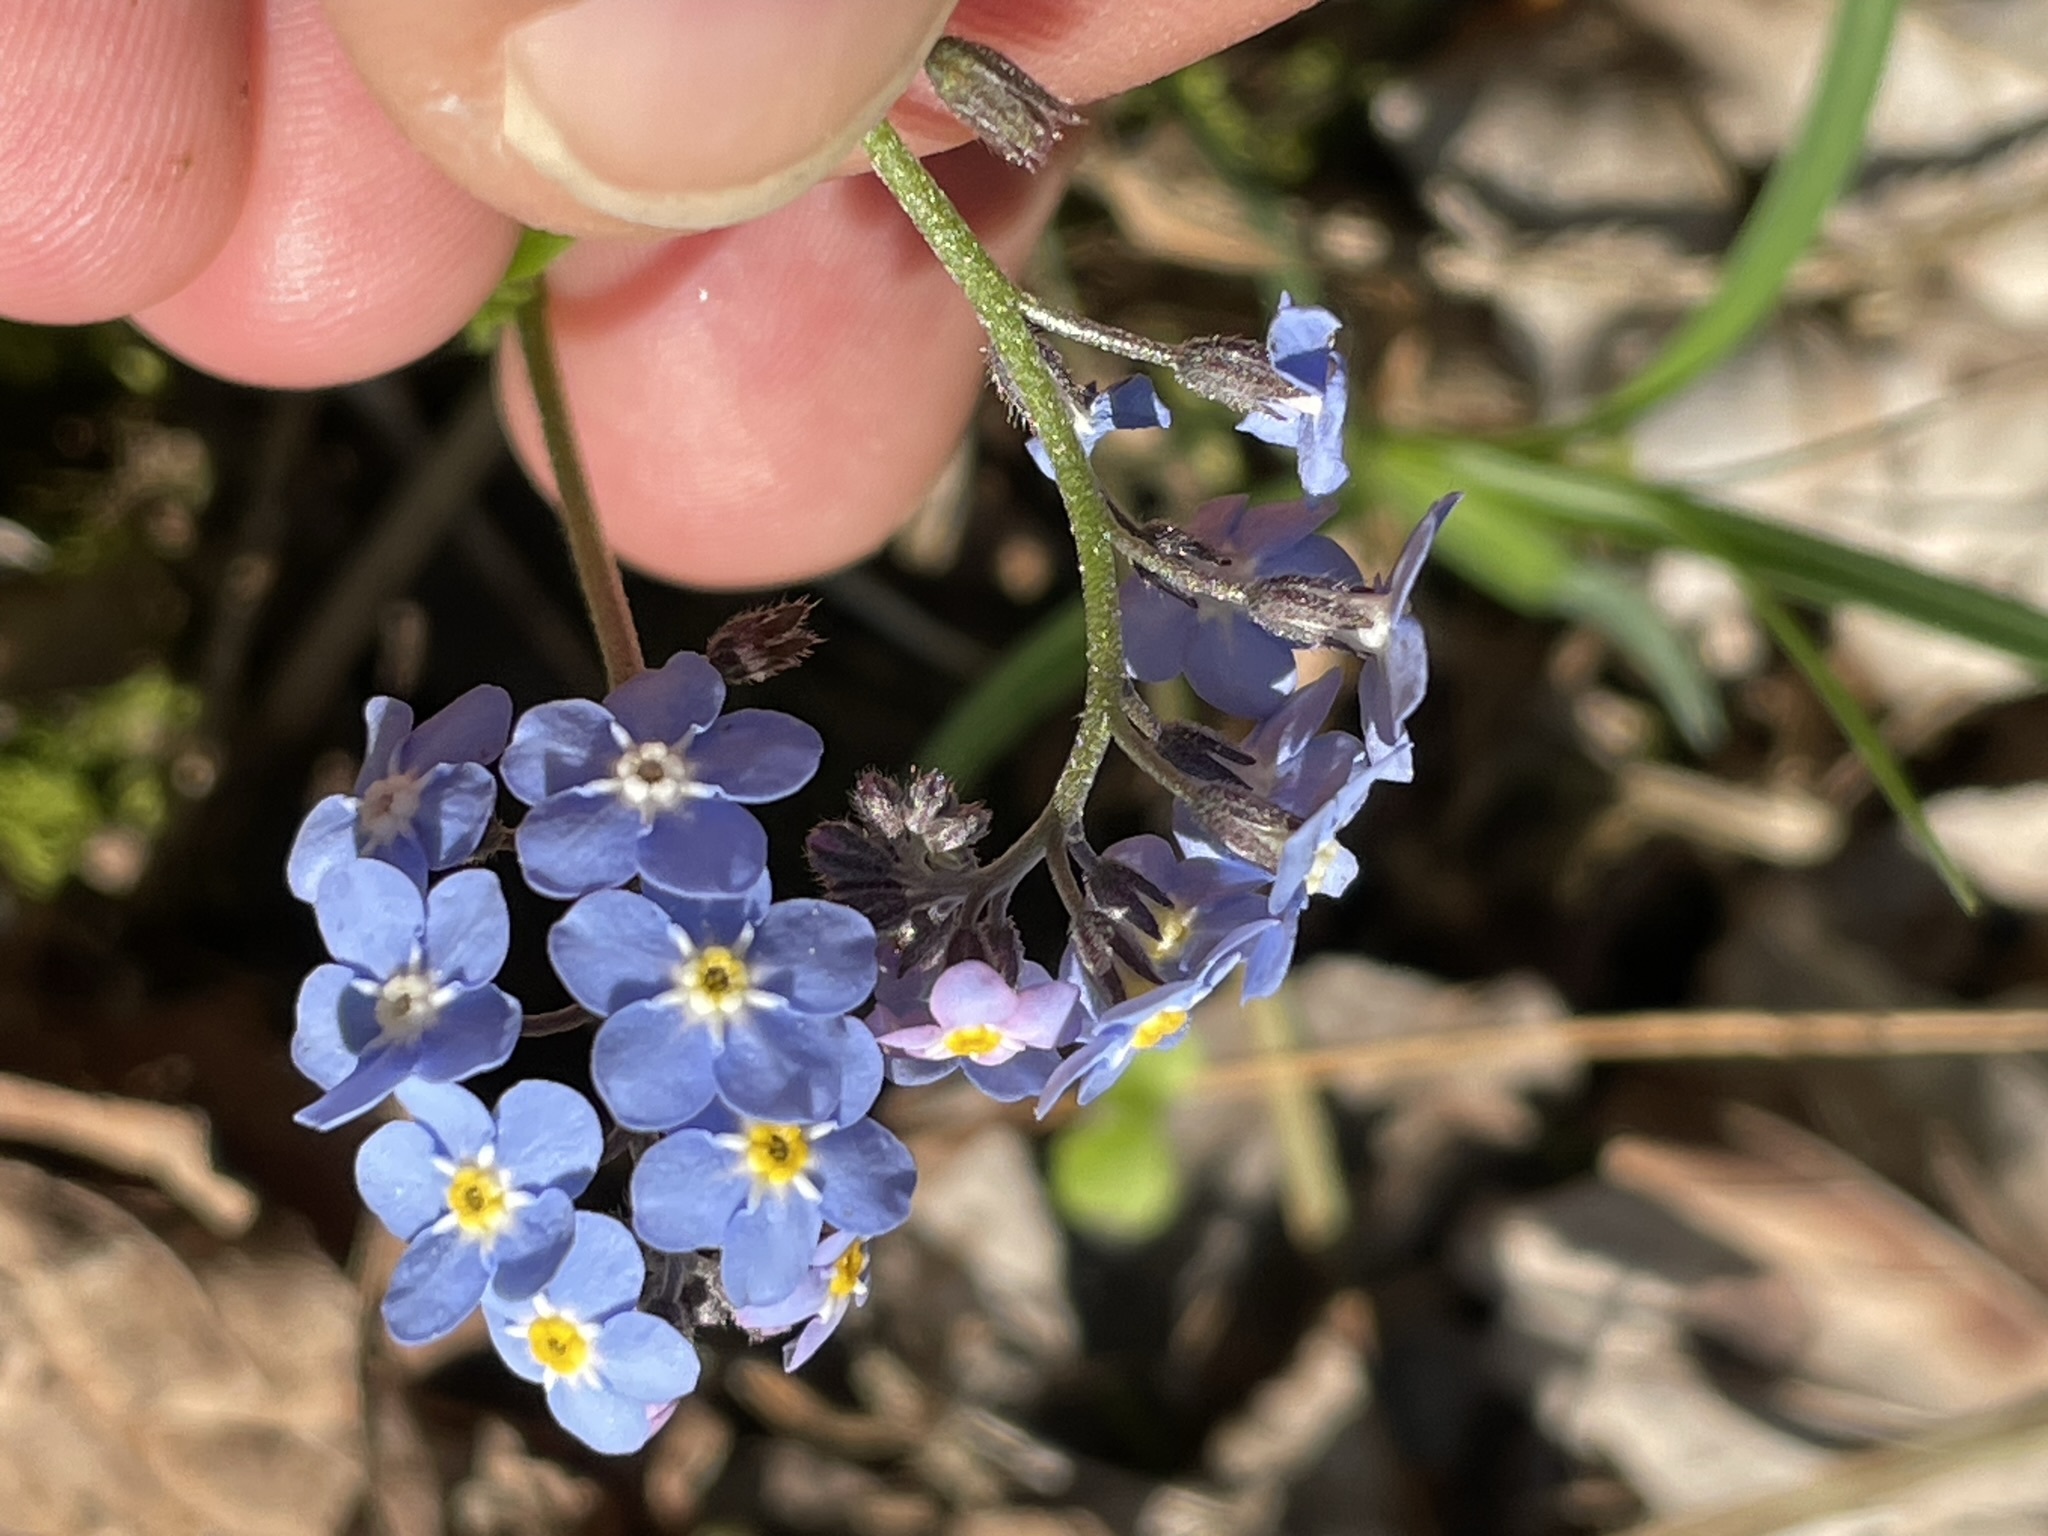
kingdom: Plantae
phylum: Tracheophyta
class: Magnoliopsida
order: Boraginales
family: Boraginaceae
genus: Myosotis
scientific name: Myosotis sylvatica
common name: Wood forget-me-not
